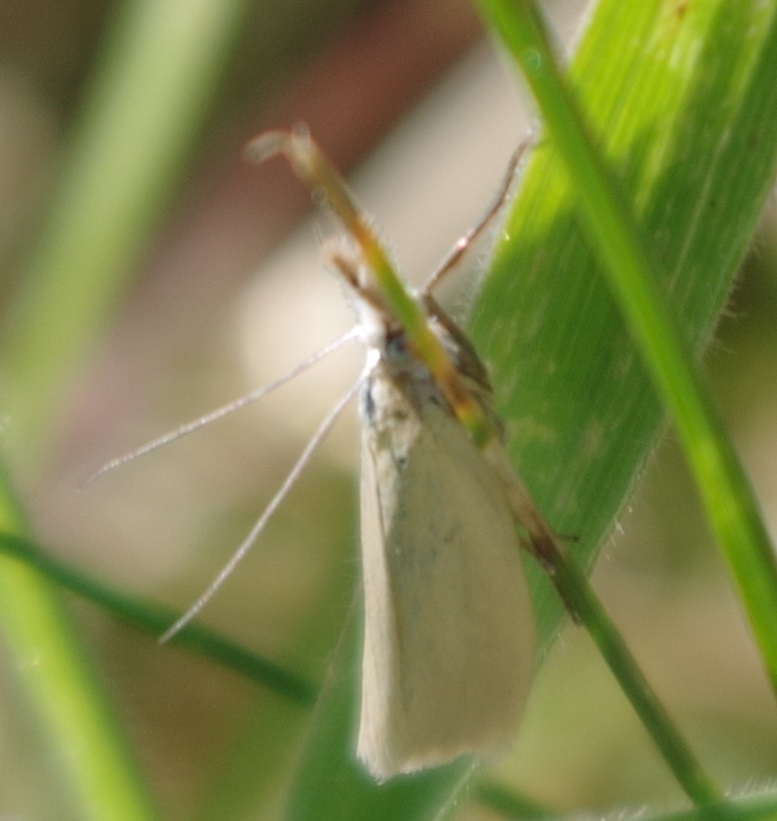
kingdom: Animalia
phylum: Arthropoda
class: Insecta
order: Lepidoptera
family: Crambidae
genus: Crambus
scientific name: Crambus perlellus
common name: Yellow satin veneer
